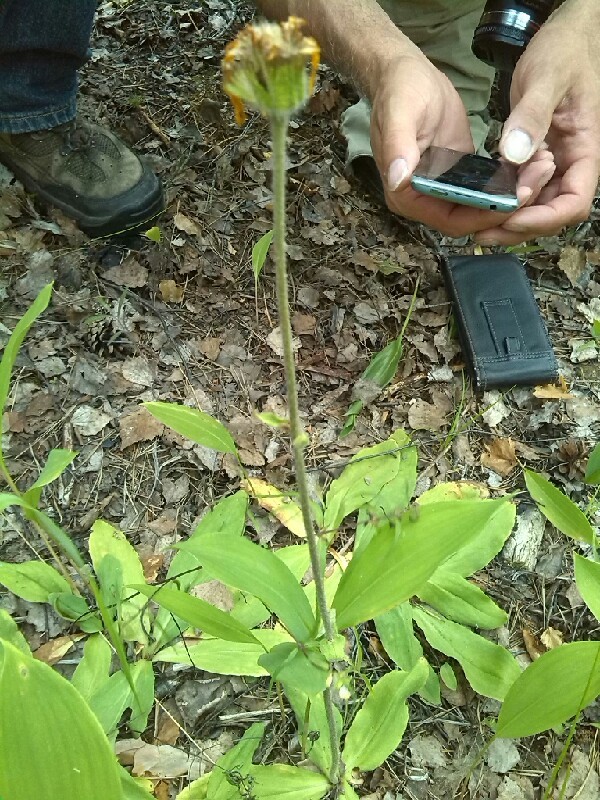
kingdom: Plantae
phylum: Tracheophyta
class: Magnoliopsida
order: Asterales
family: Asteraceae
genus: Arnica
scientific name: Arnica montana
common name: Leopard's bane
